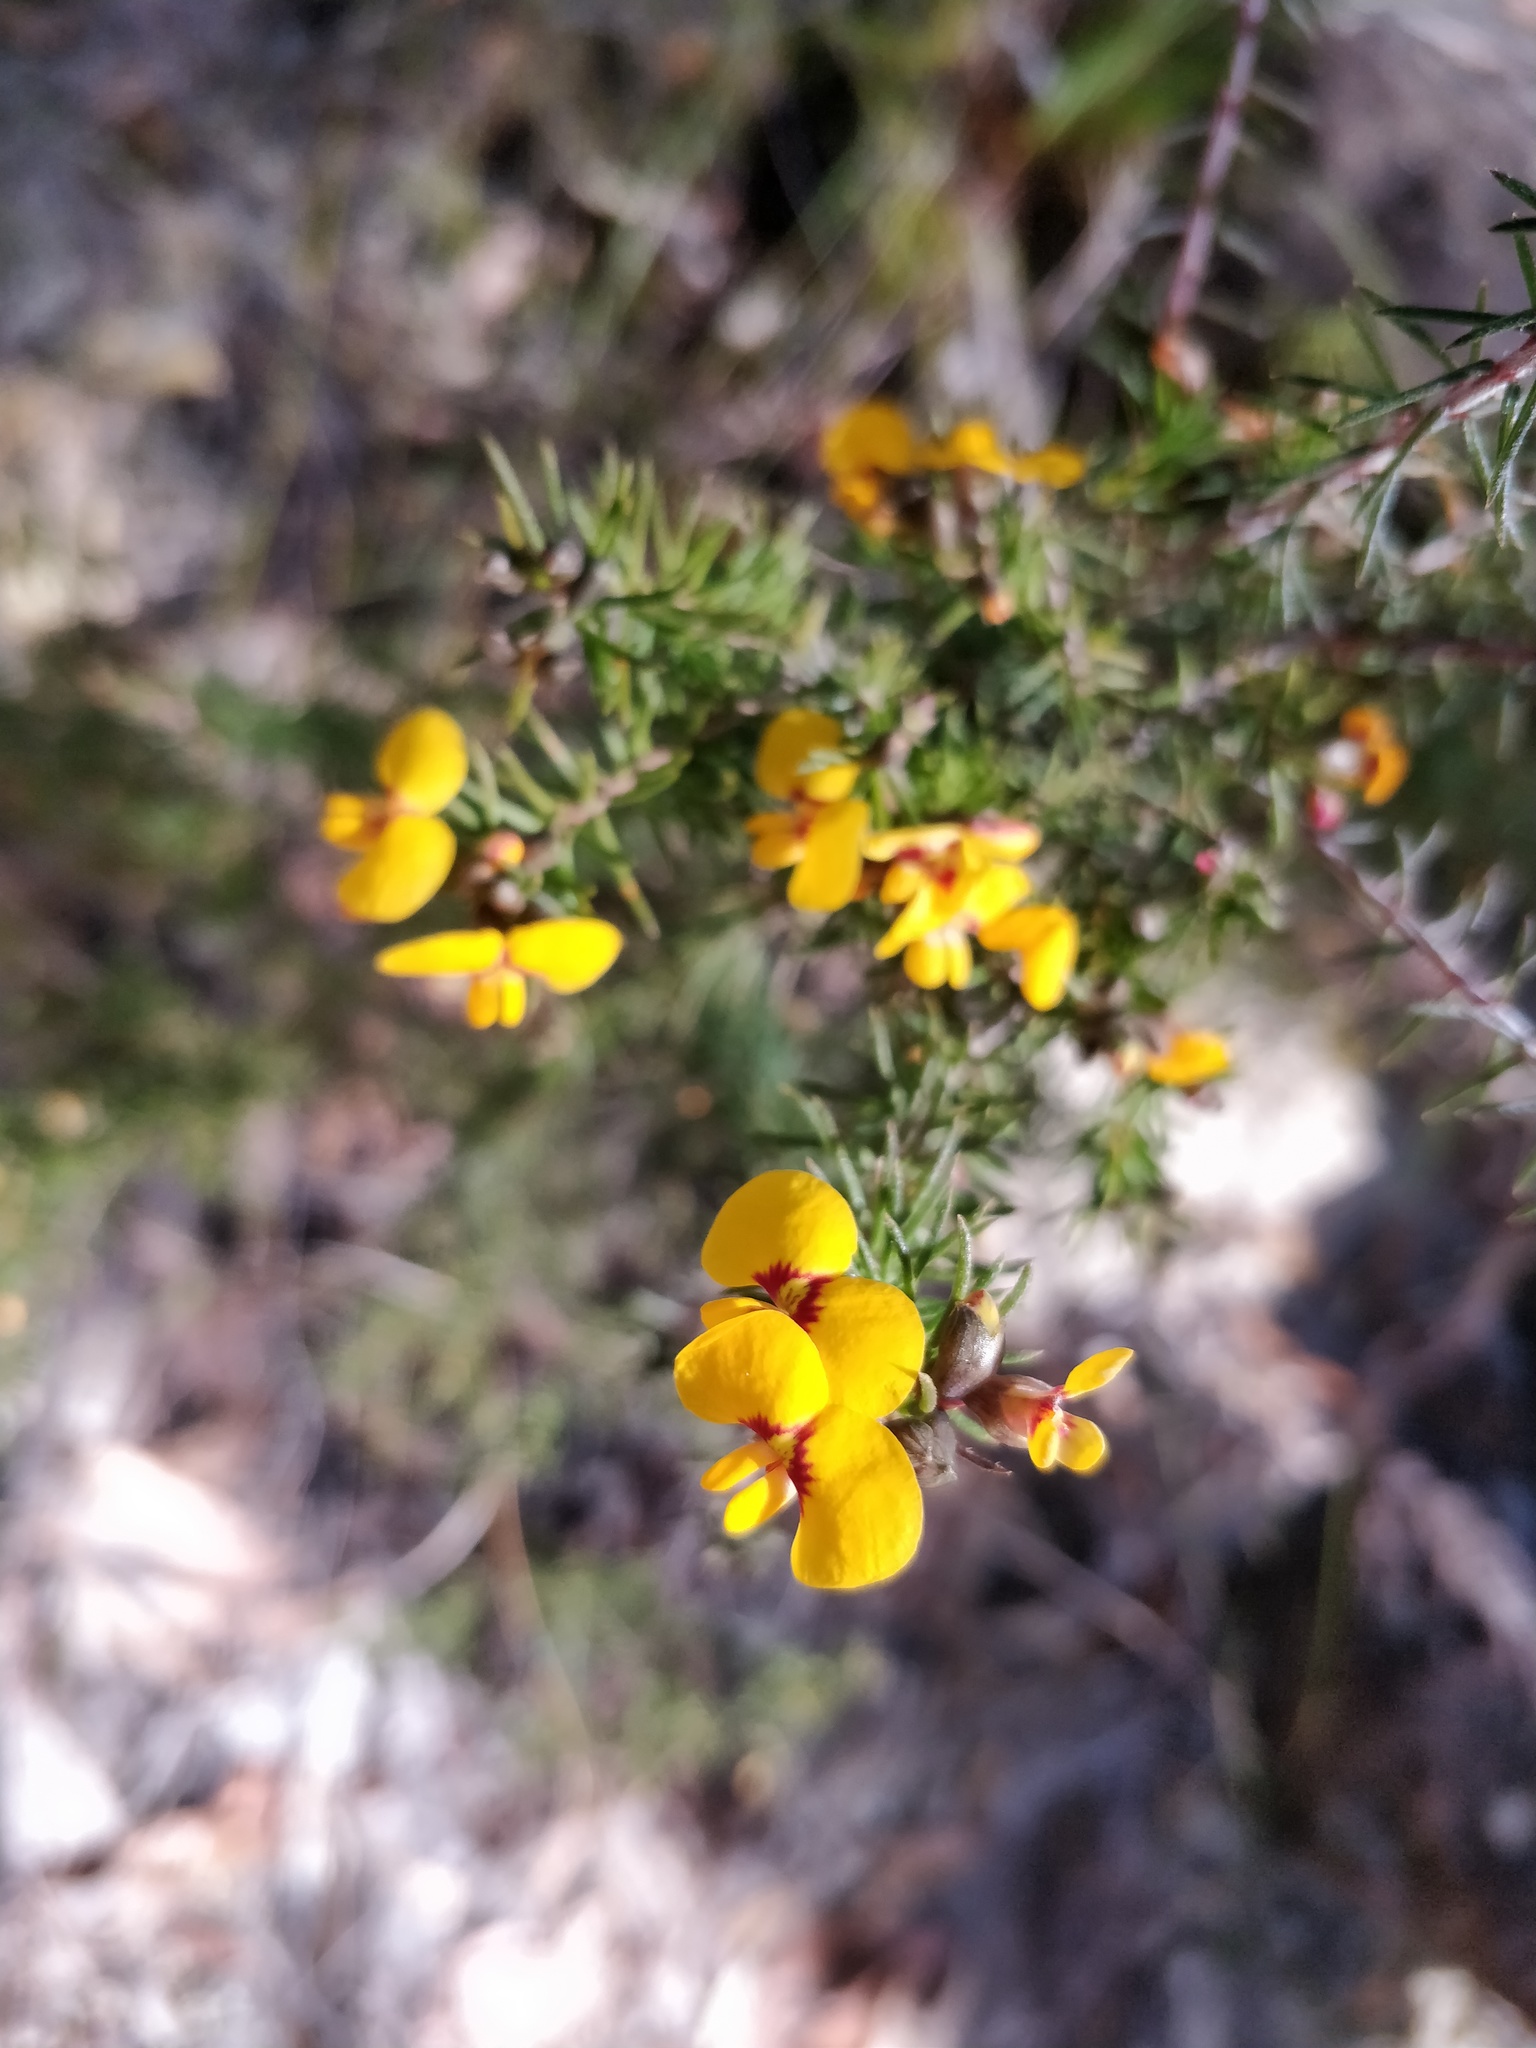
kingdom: Plantae
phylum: Tracheophyta
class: Magnoliopsida
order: Fabales
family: Fabaceae
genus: Dillwynia
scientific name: Dillwynia retorta
